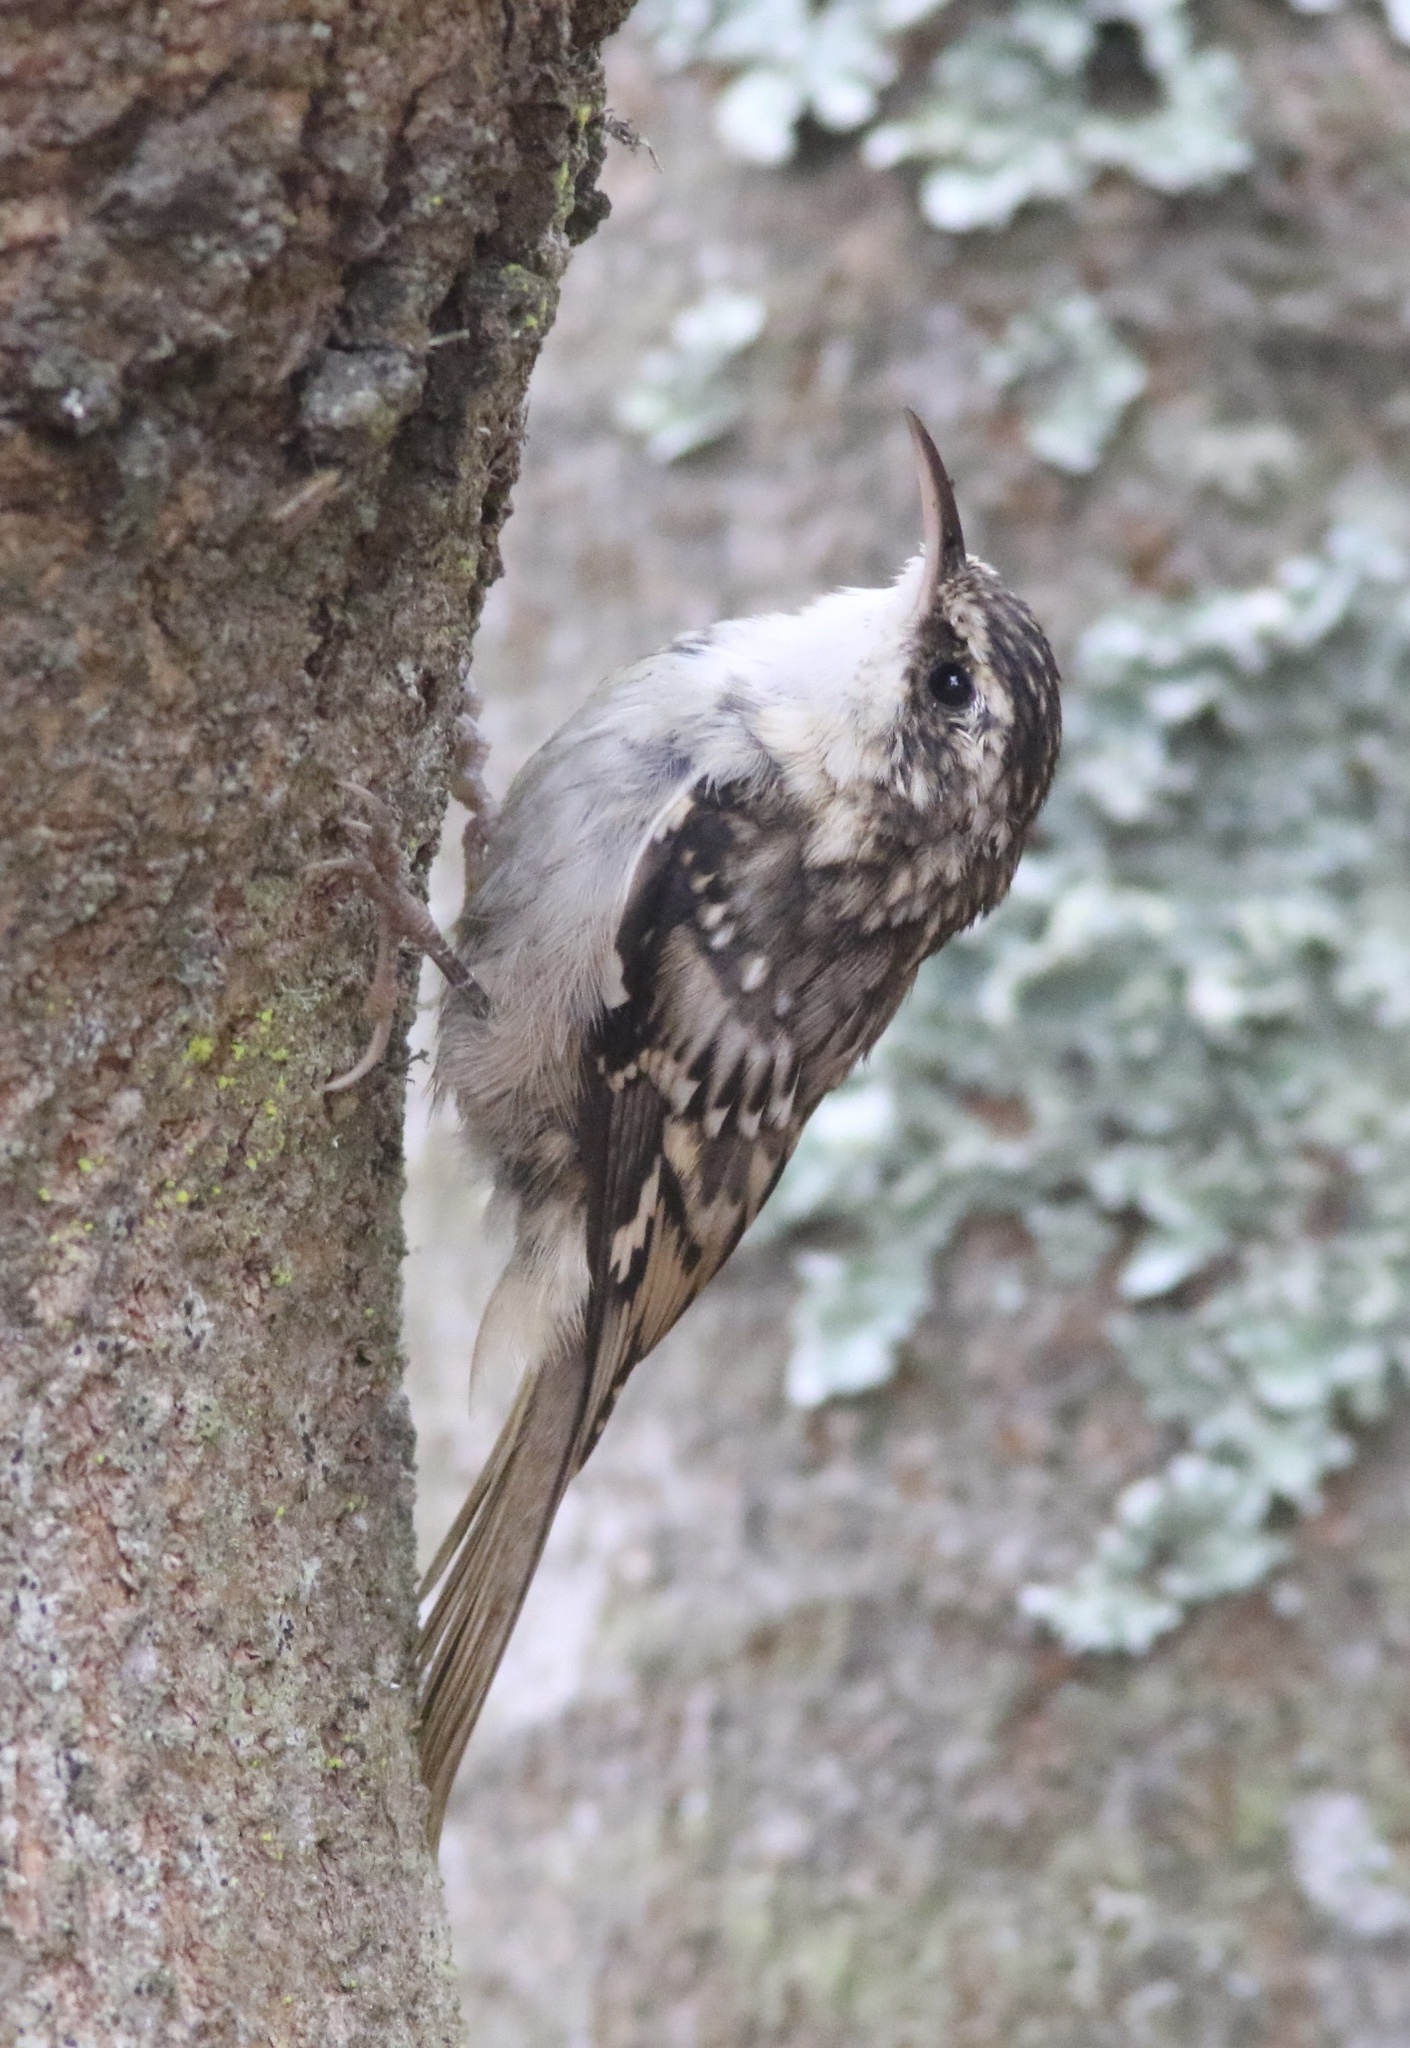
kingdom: Animalia
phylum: Chordata
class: Aves
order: Passeriformes
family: Certhiidae
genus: Certhia
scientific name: Certhia americana
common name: Brown creeper
